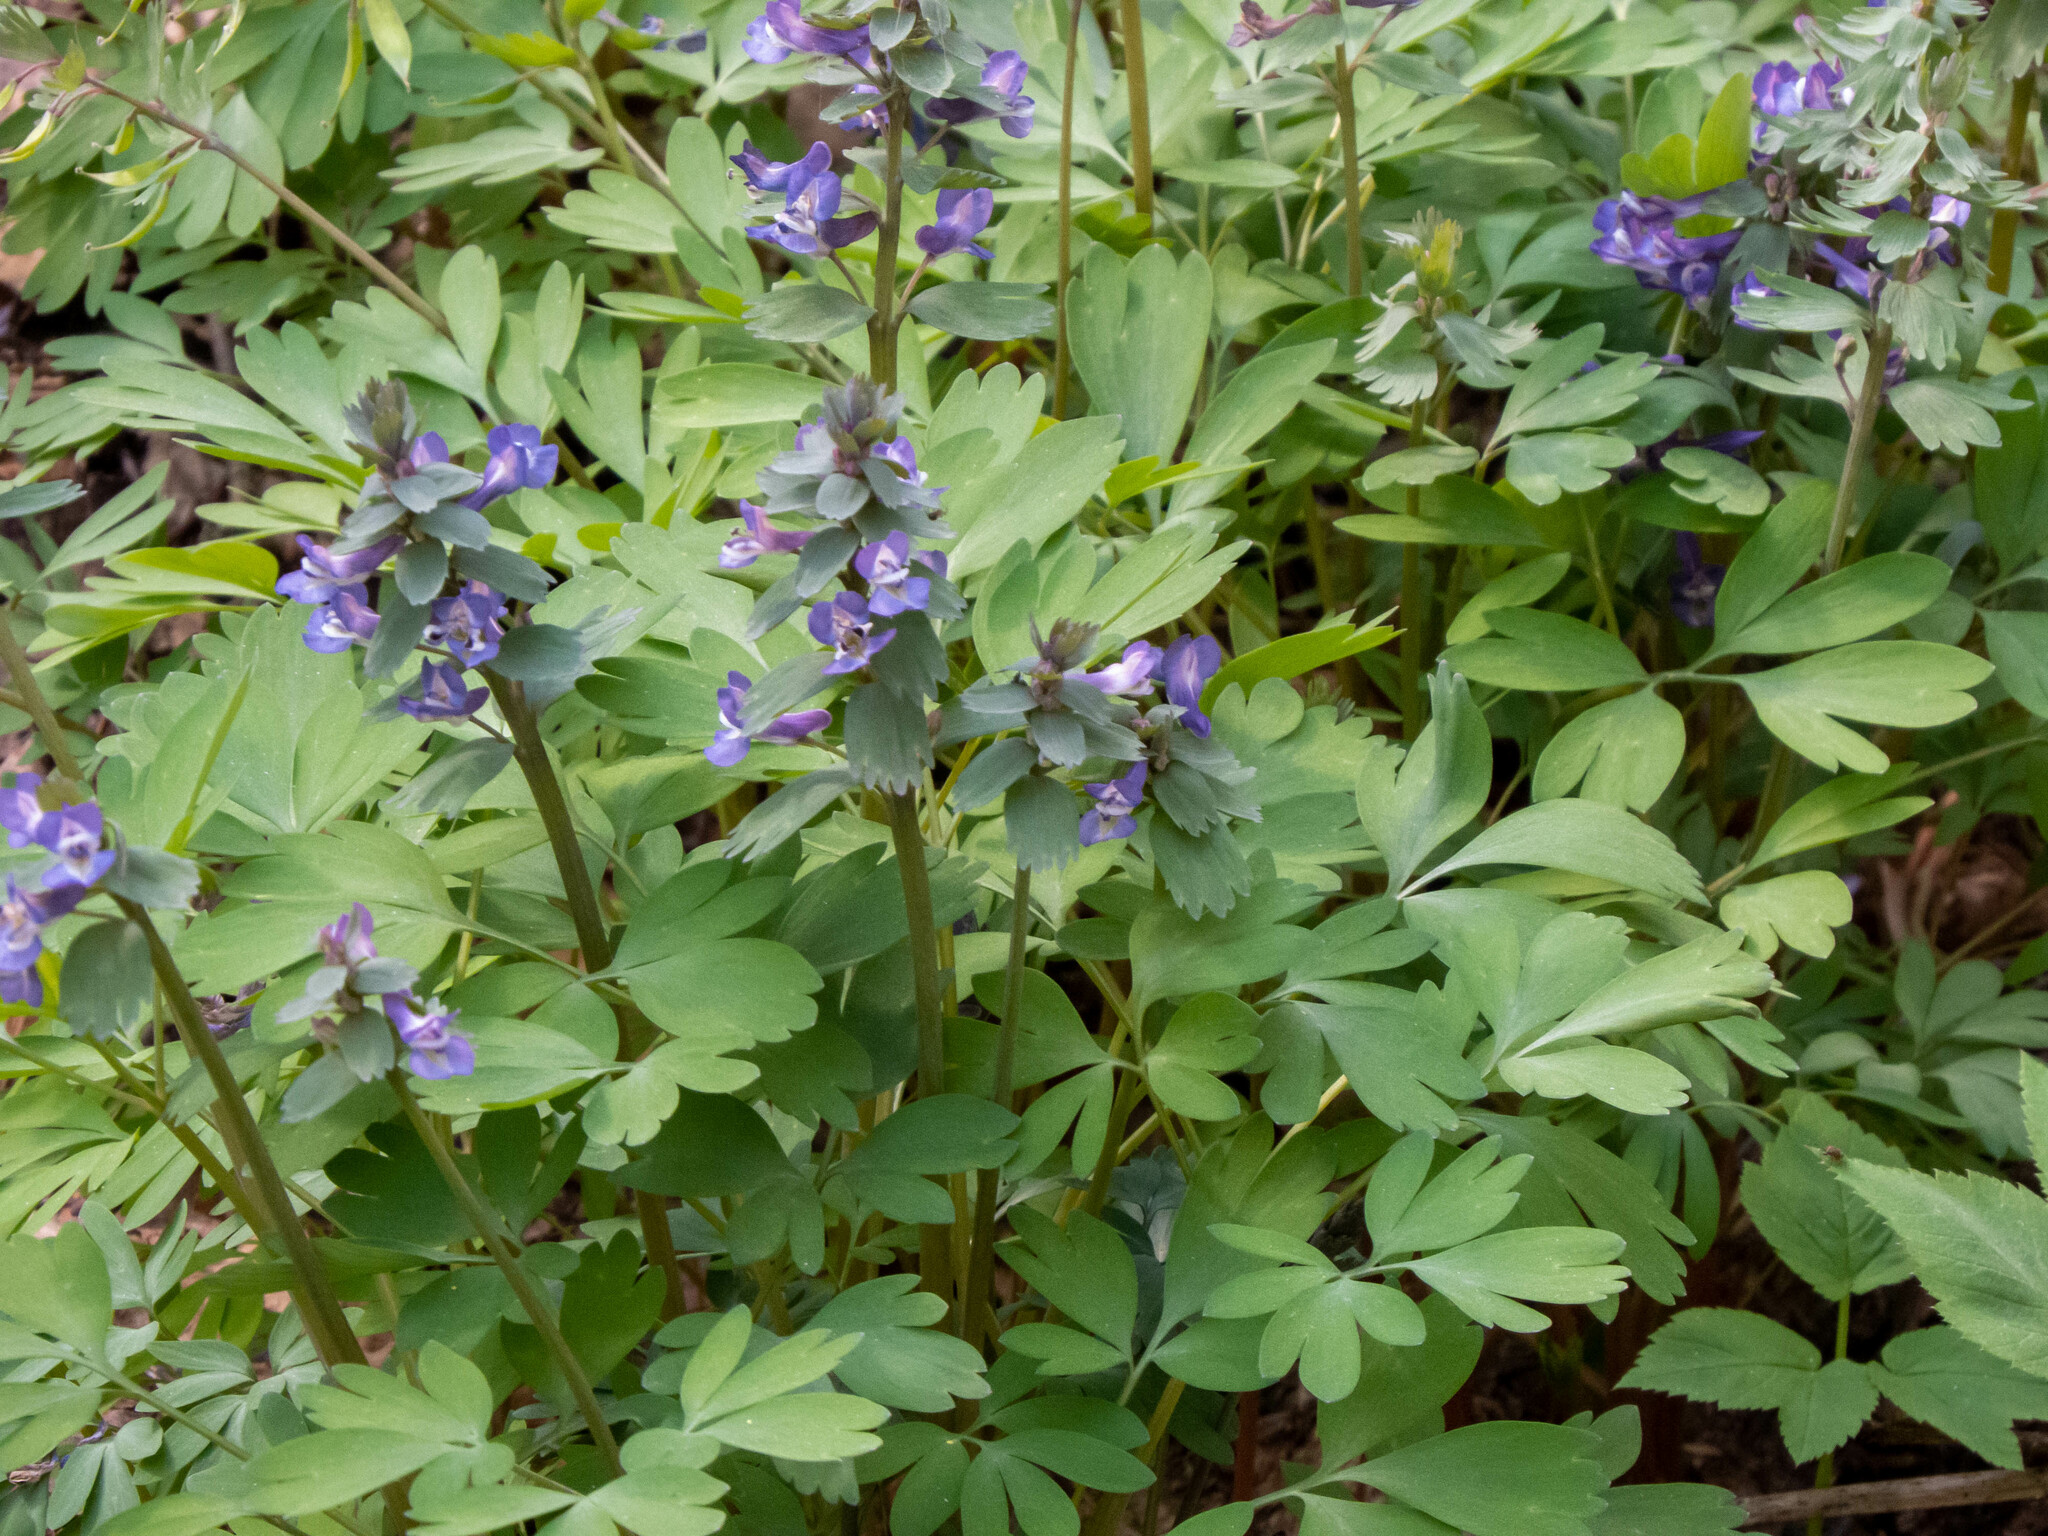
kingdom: Plantae
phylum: Tracheophyta
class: Magnoliopsida
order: Ranunculales
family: Papaveraceae
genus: Corydalis
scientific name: Corydalis solida
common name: Bird-in-a-bush
